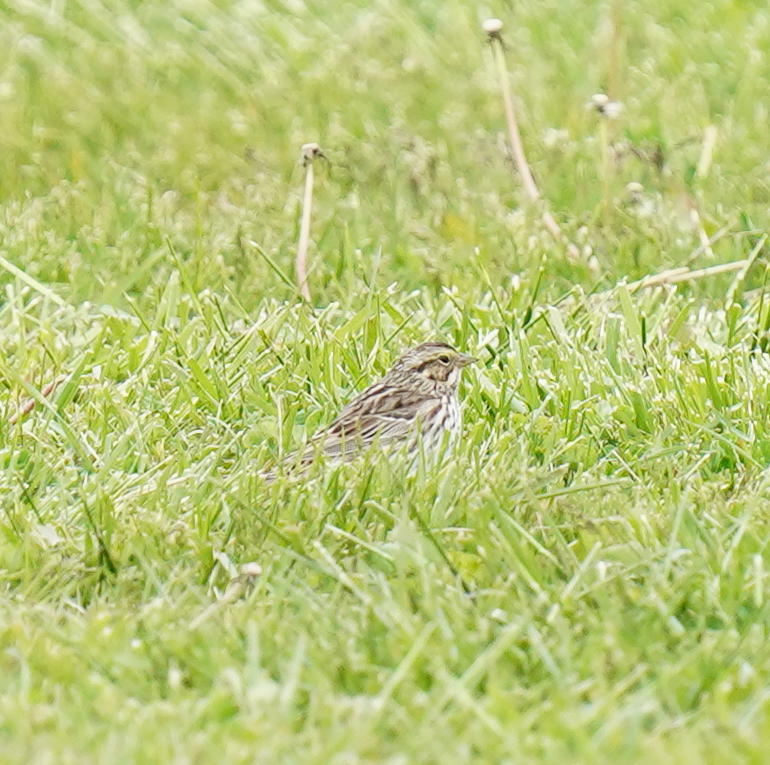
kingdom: Animalia
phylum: Chordata
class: Aves
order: Passeriformes
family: Passerellidae
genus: Passerculus
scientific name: Passerculus sandwichensis
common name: Savannah sparrow
